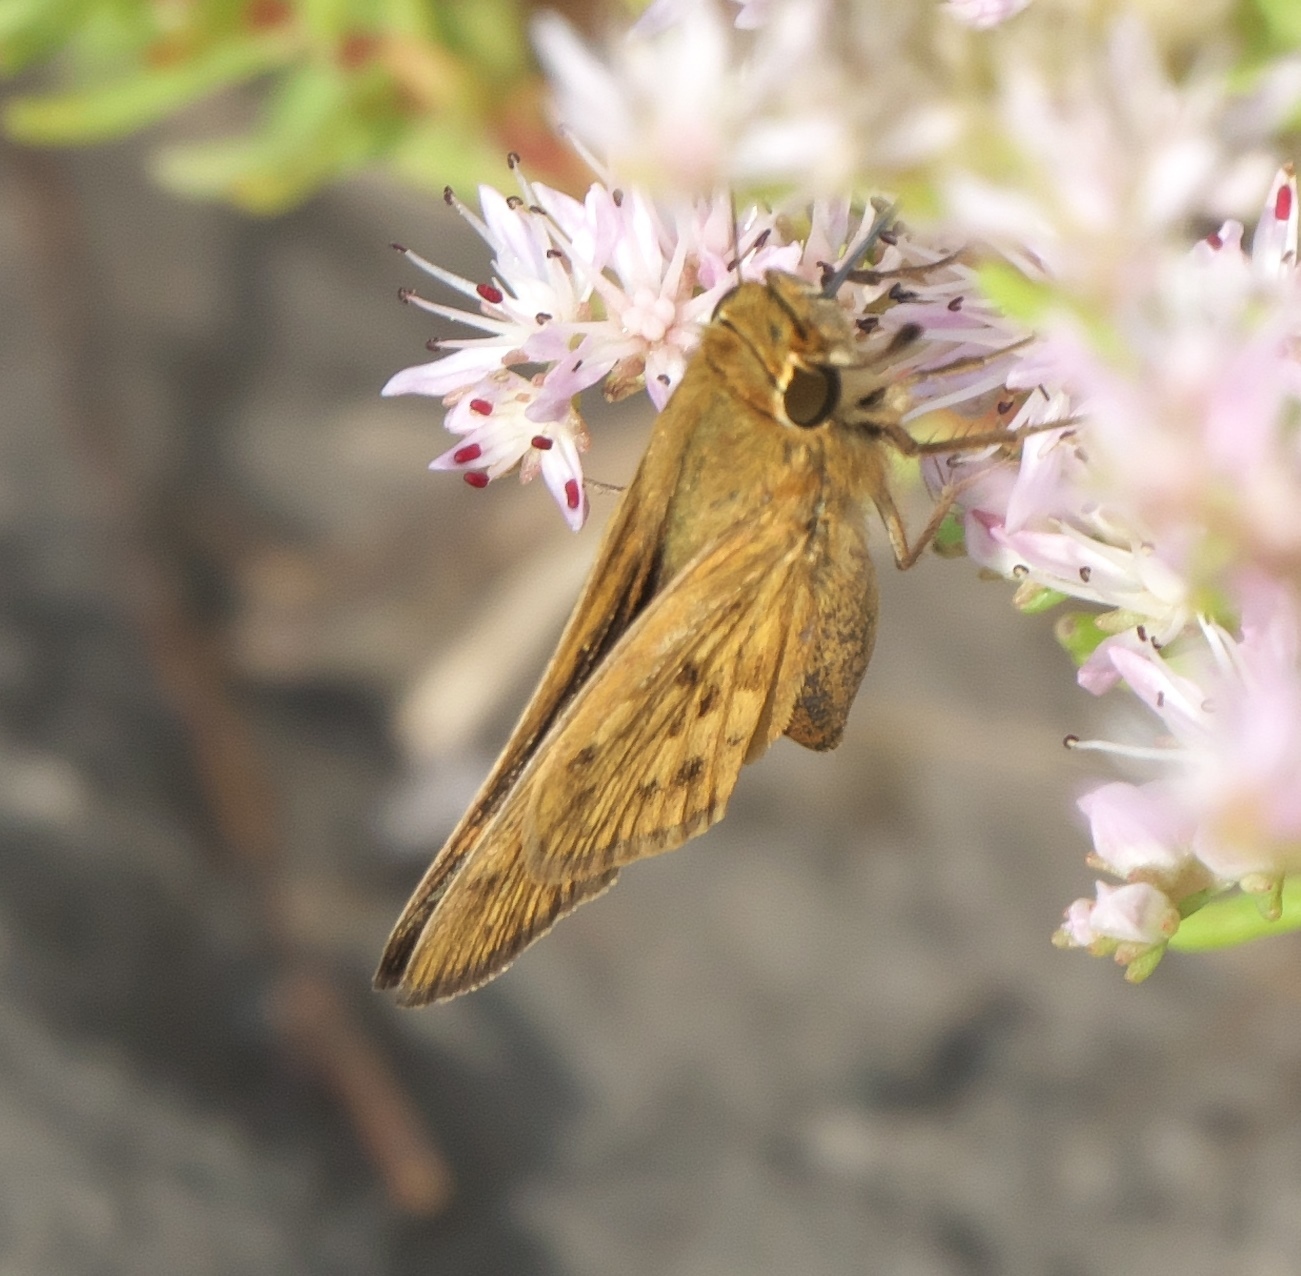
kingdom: Animalia
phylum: Arthropoda
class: Insecta
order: Lepidoptera
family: Hesperiidae
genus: Hylephila
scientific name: Hylephila phyleus
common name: Fiery skipper
